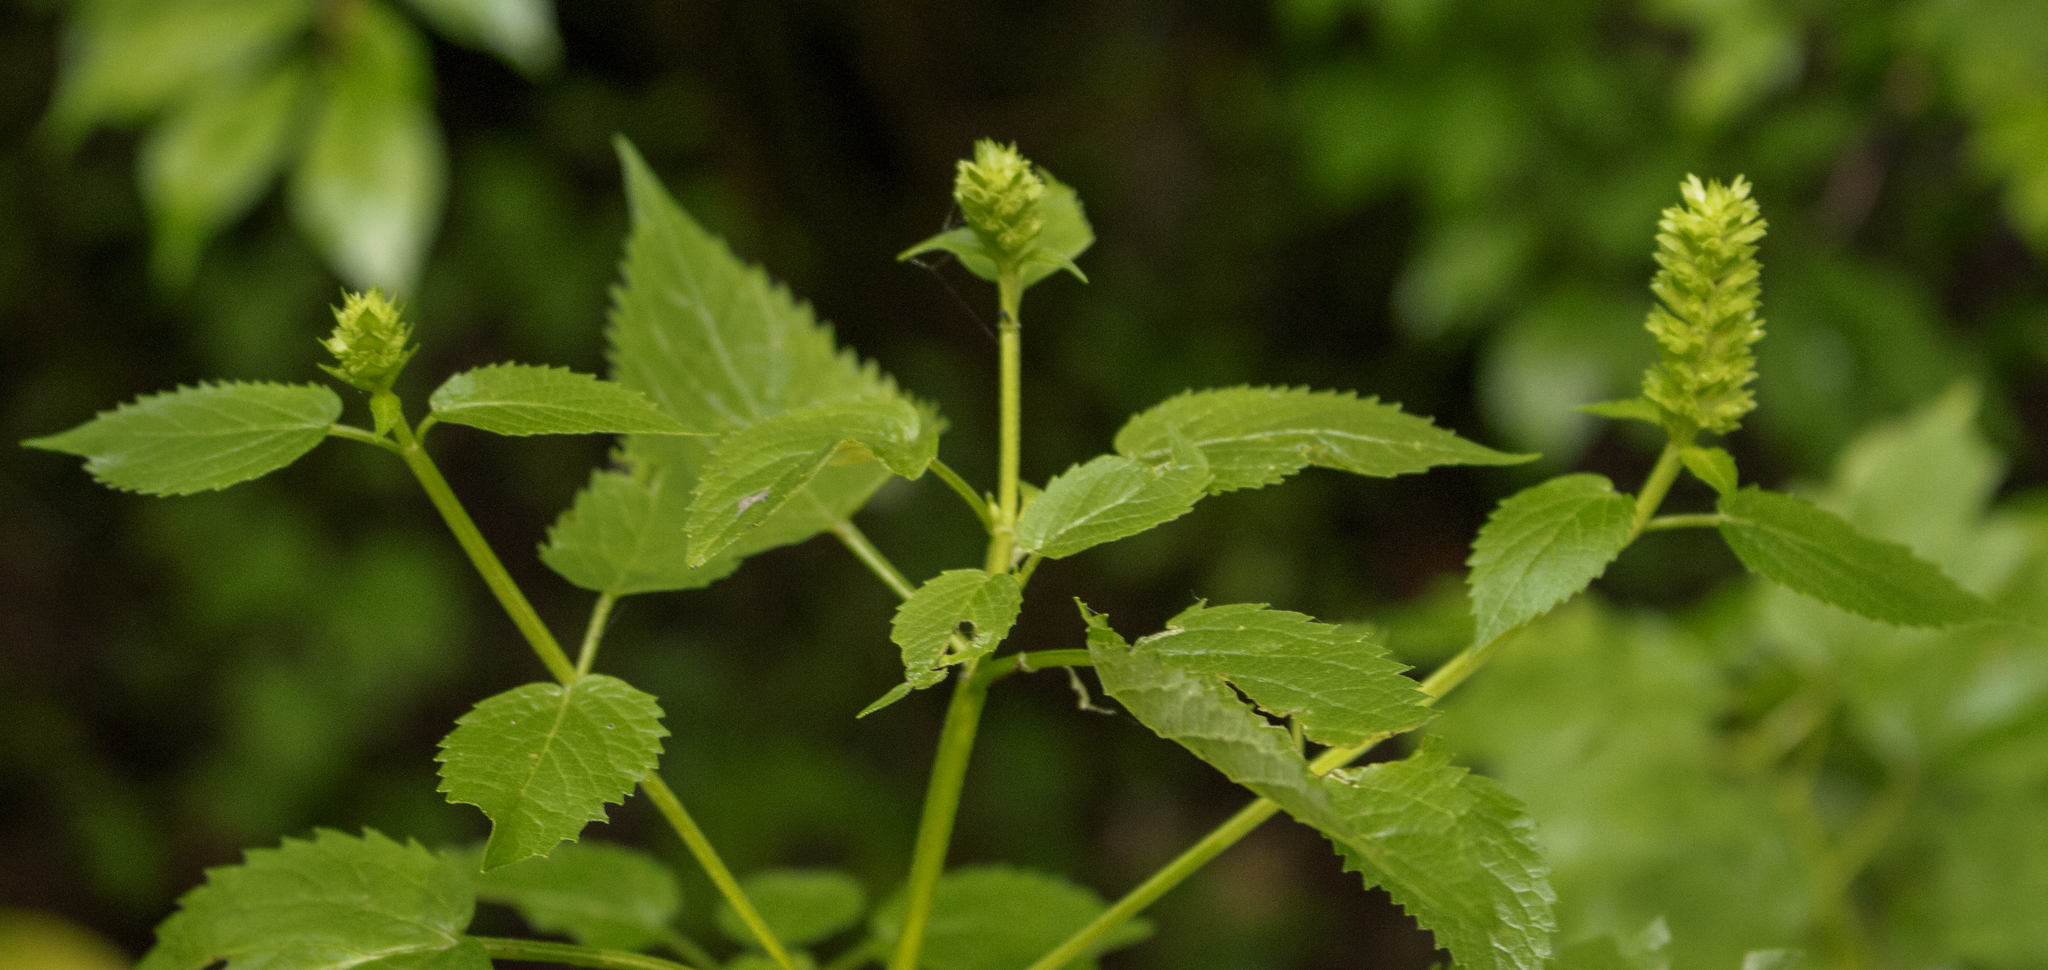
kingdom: Plantae
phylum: Tracheophyta
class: Magnoliopsida
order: Lamiales
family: Lamiaceae
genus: Agastache
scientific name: Agastache nepetoides
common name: Catnip giant hyssop
